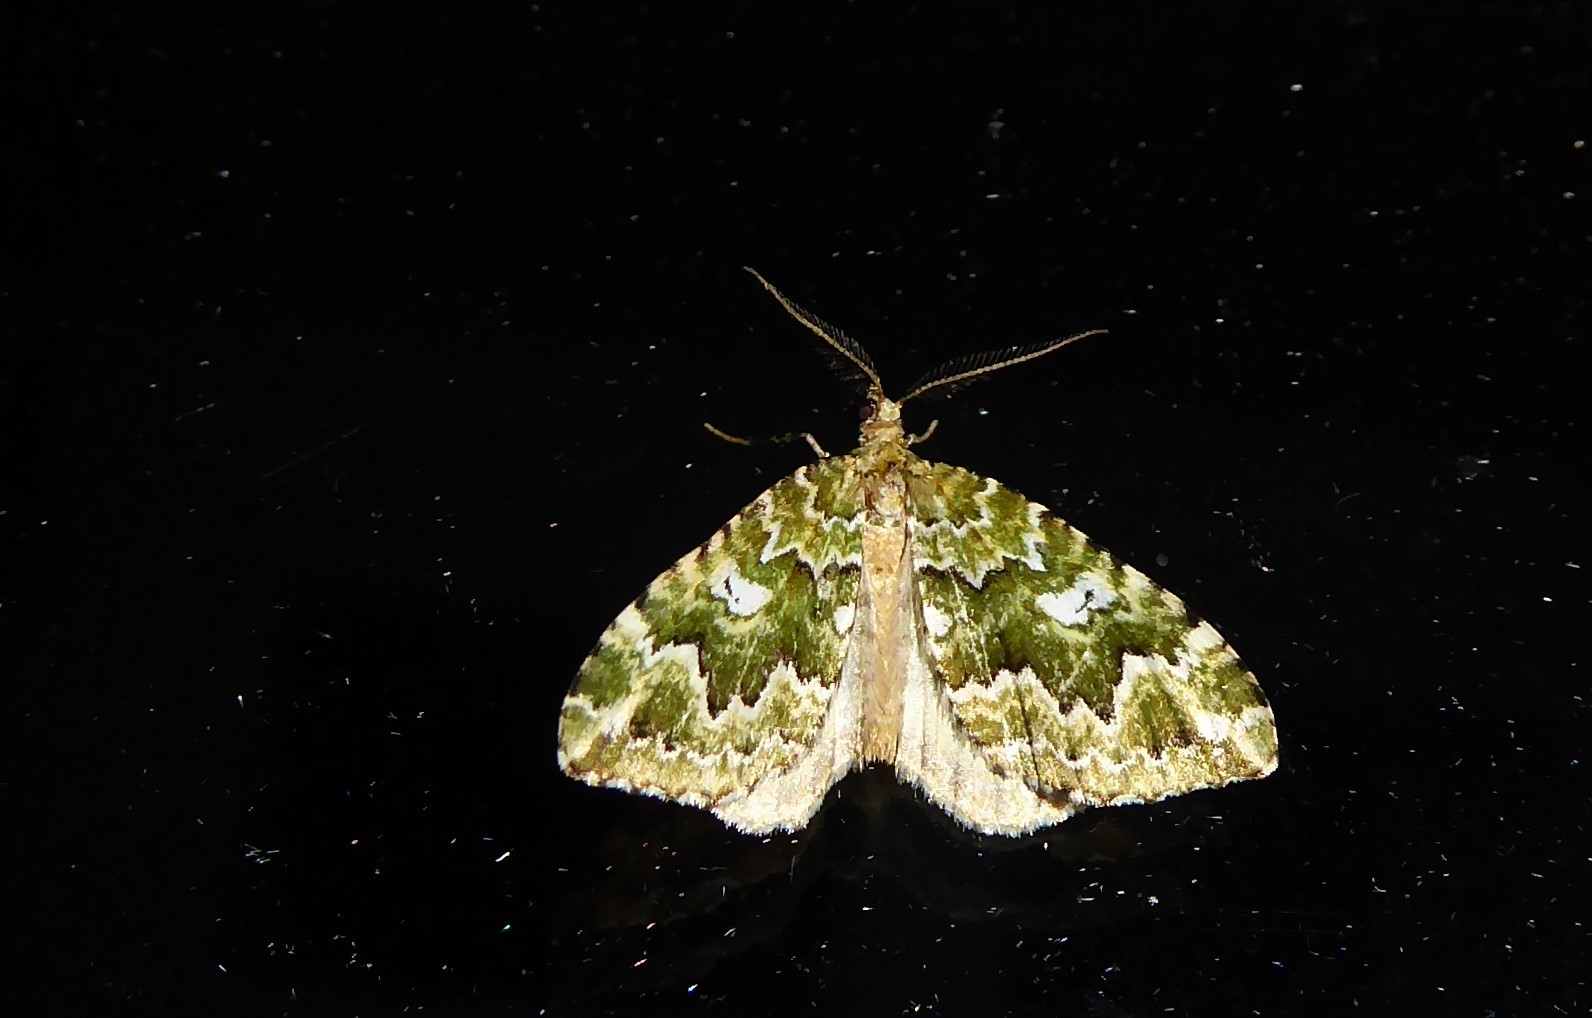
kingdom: Animalia
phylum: Arthropoda
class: Insecta
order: Lepidoptera
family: Geometridae
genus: Asaphodes
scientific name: Asaphodes beata
